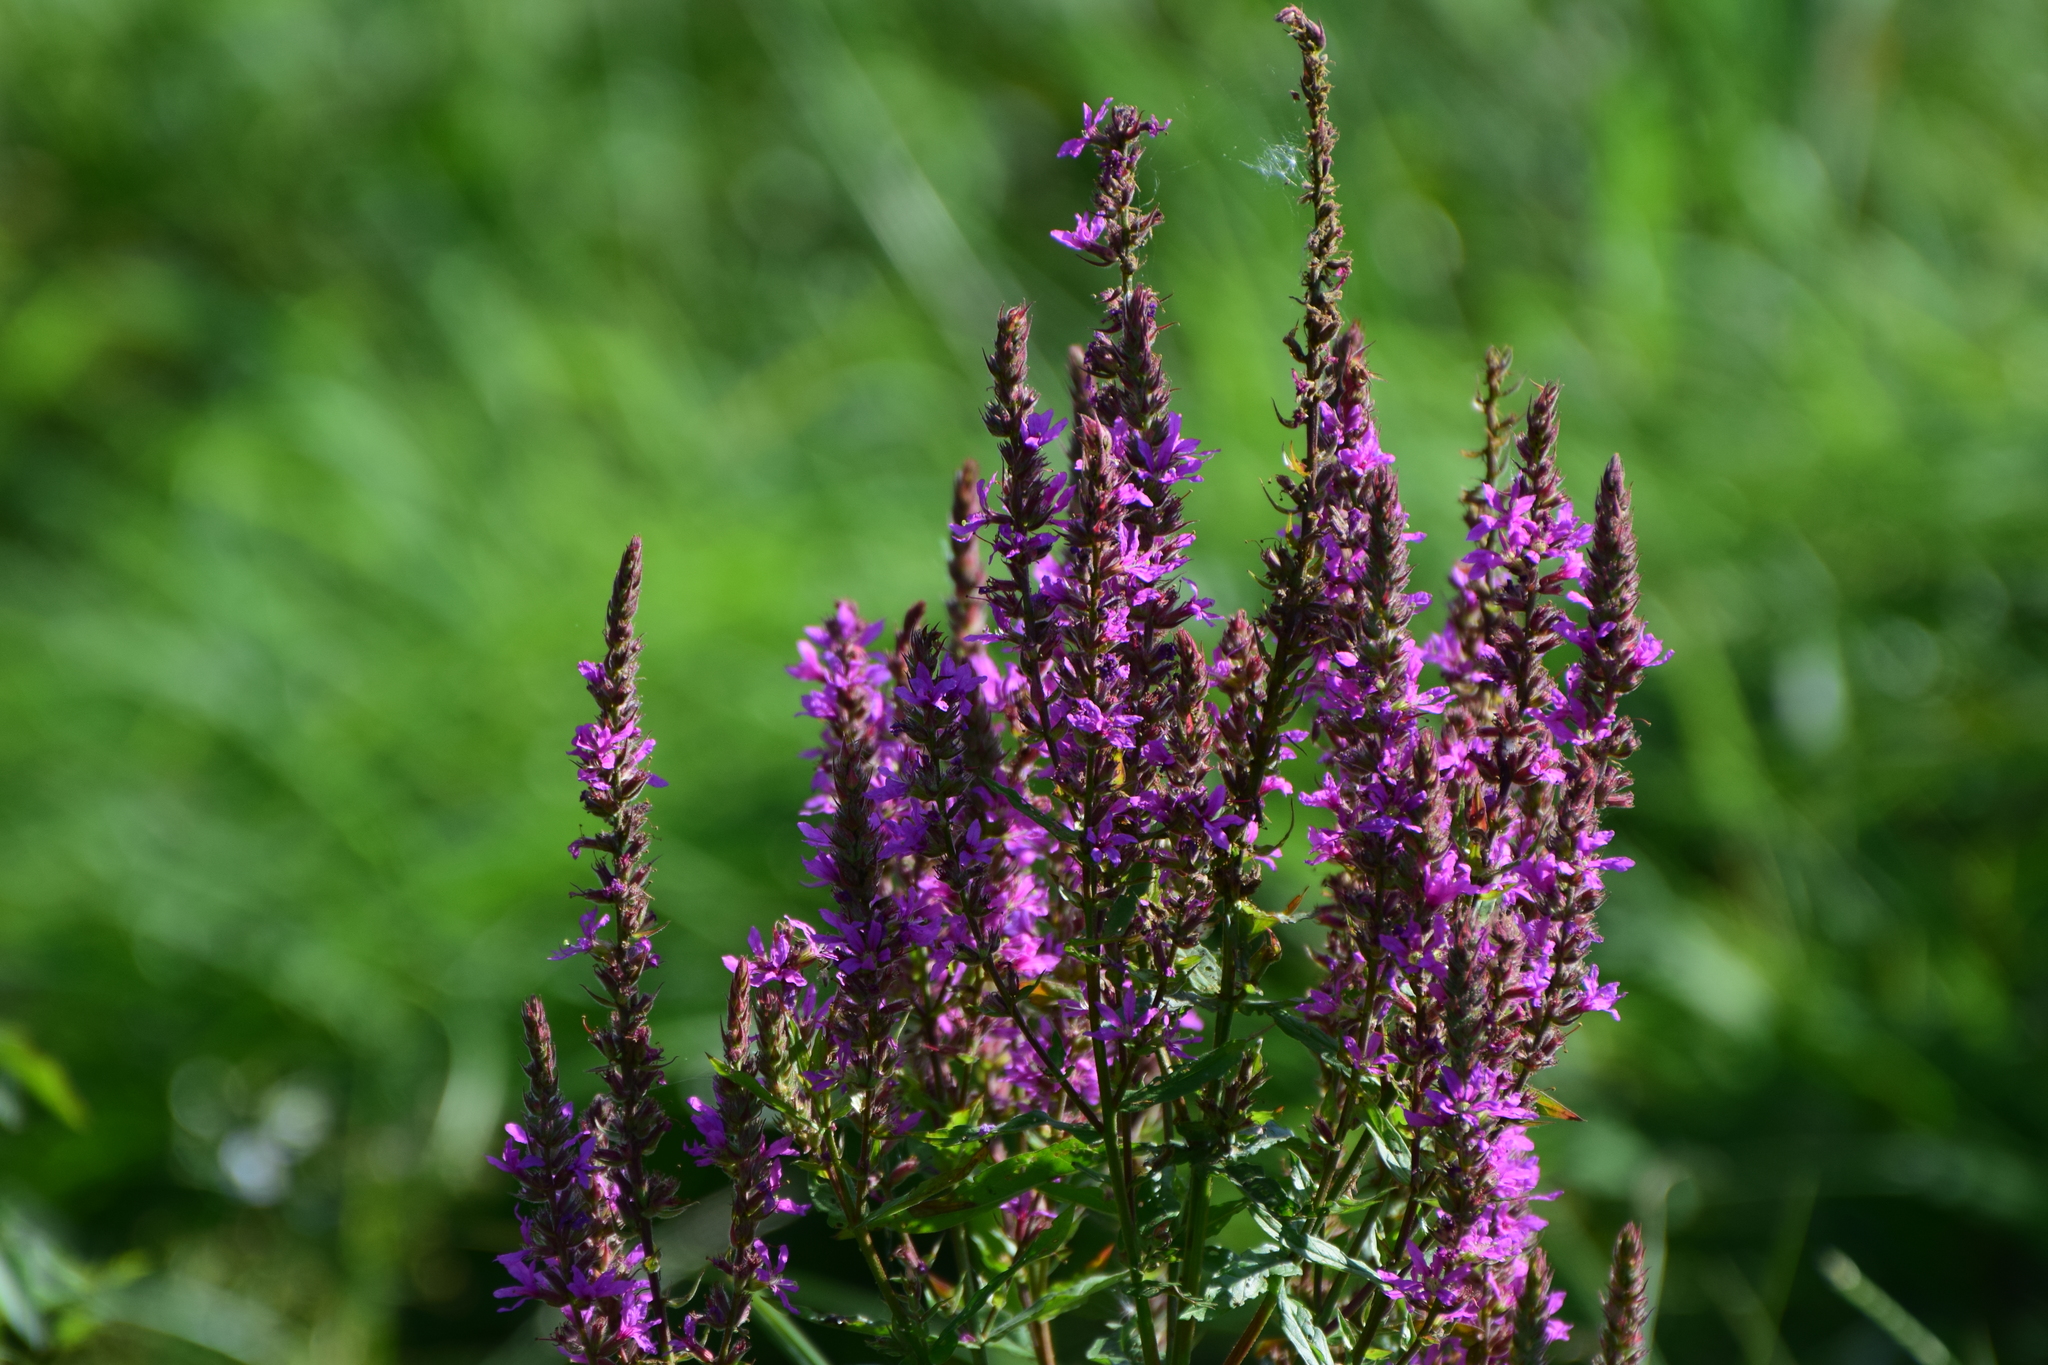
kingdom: Plantae
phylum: Tracheophyta
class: Magnoliopsida
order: Myrtales
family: Lythraceae
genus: Lythrum
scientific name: Lythrum salicaria
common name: Purple loosestrife
